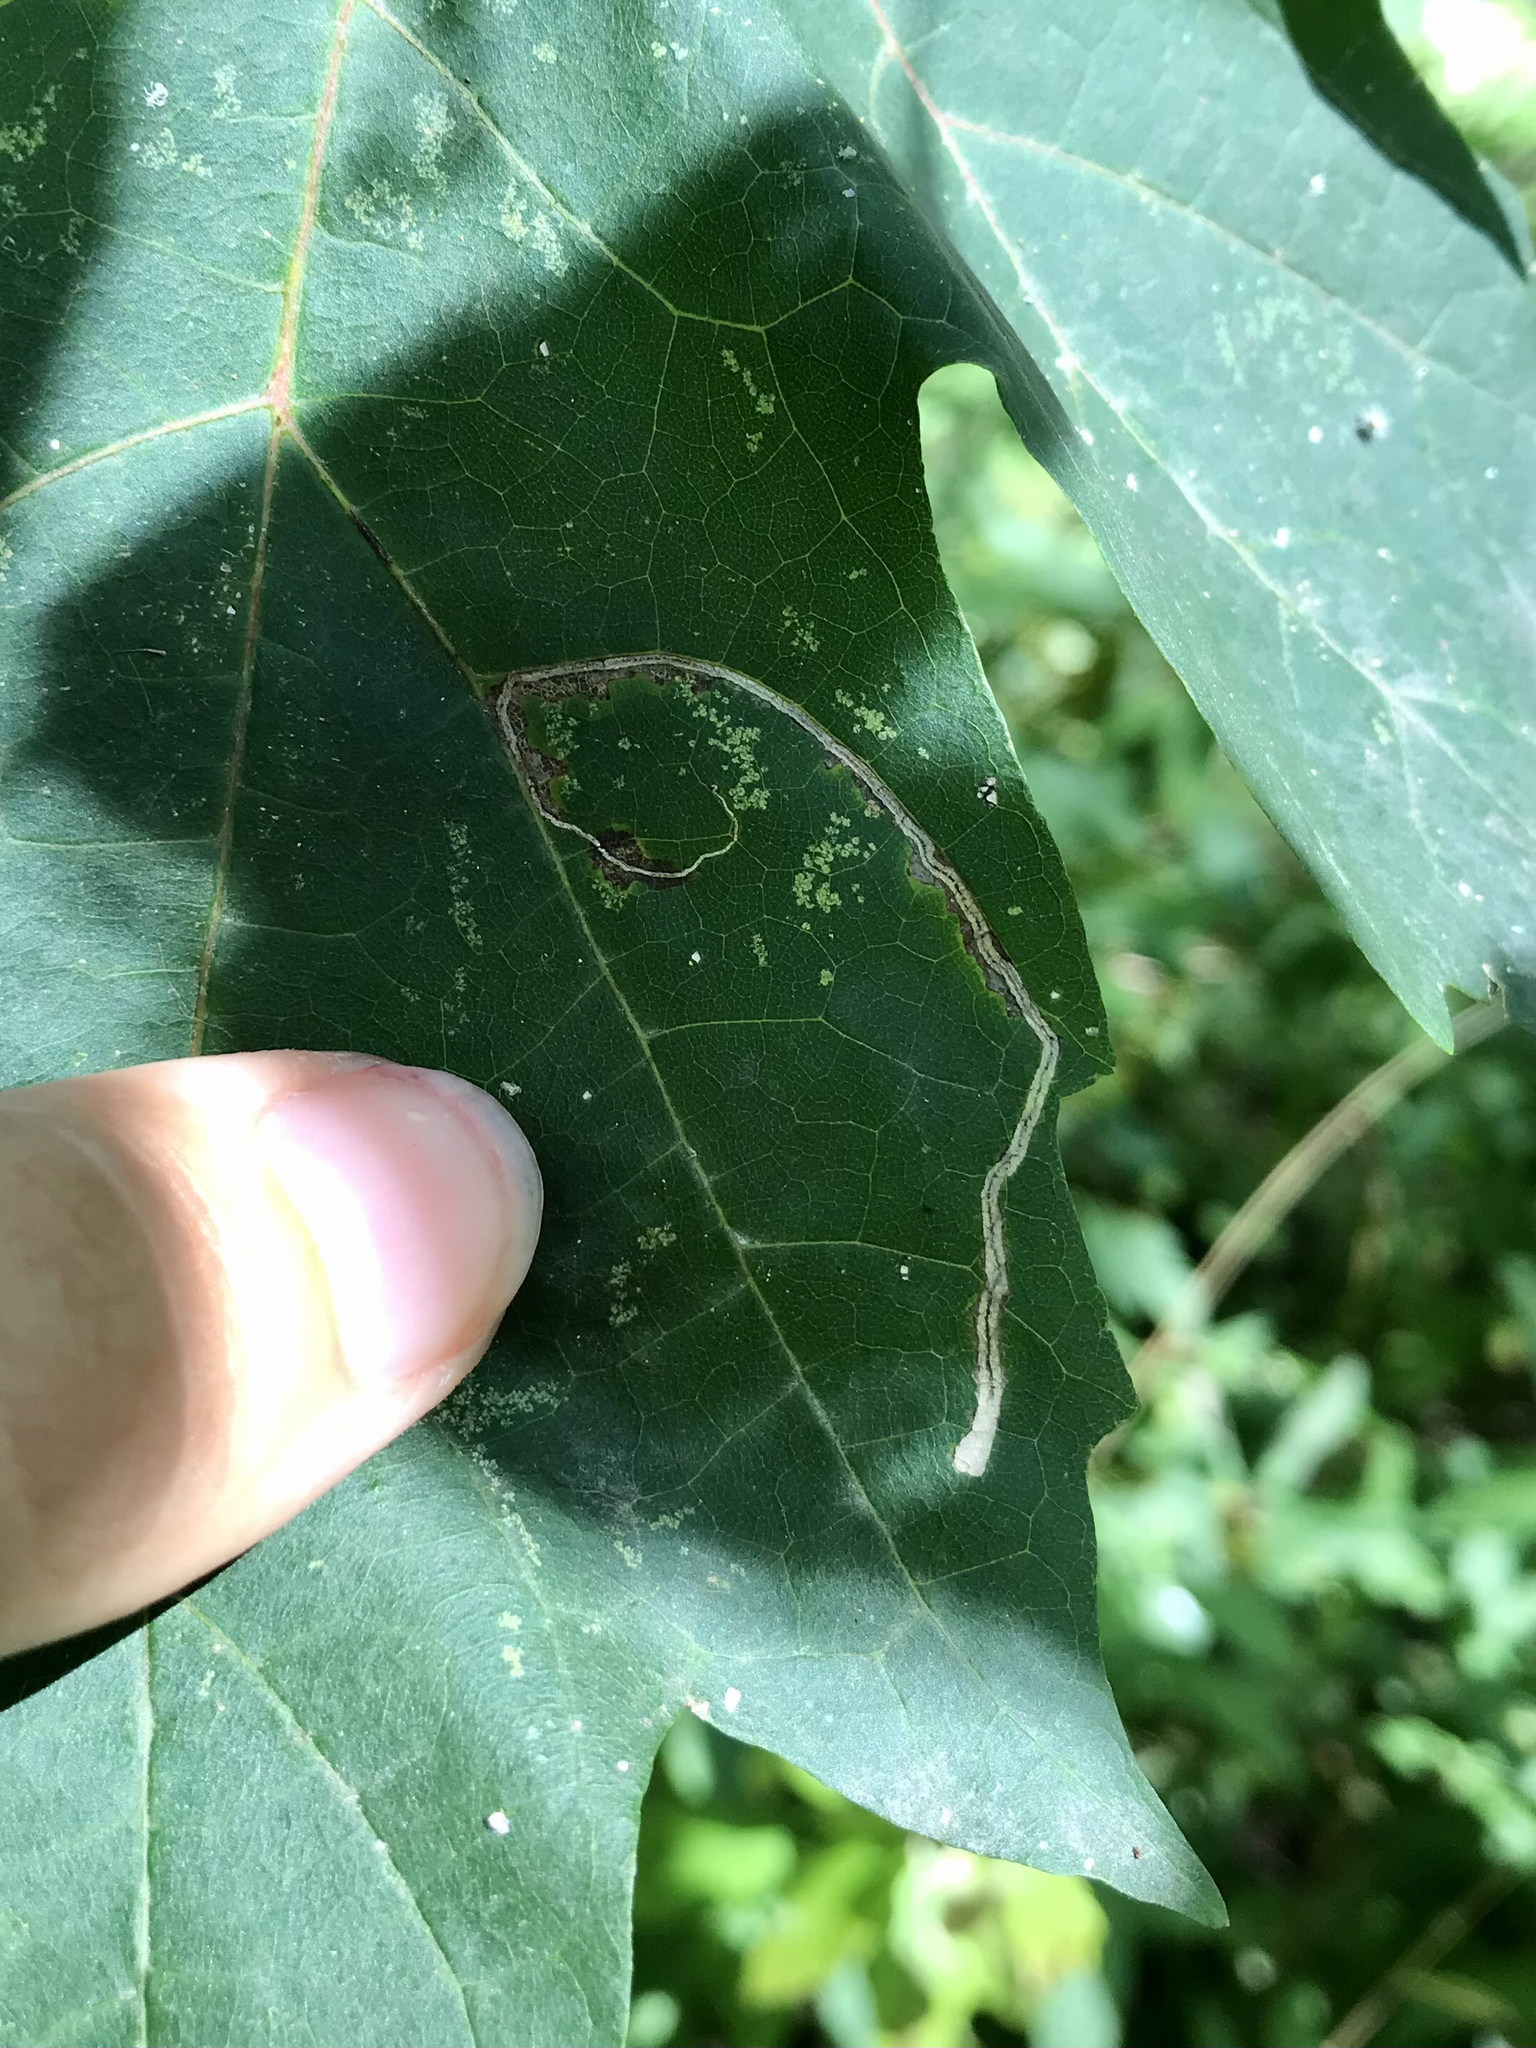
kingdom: Animalia
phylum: Arthropoda
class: Insecta
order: Lepidoptera
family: Nepticulidae
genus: Glaucolepis
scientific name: Glaucolepis saccharella
